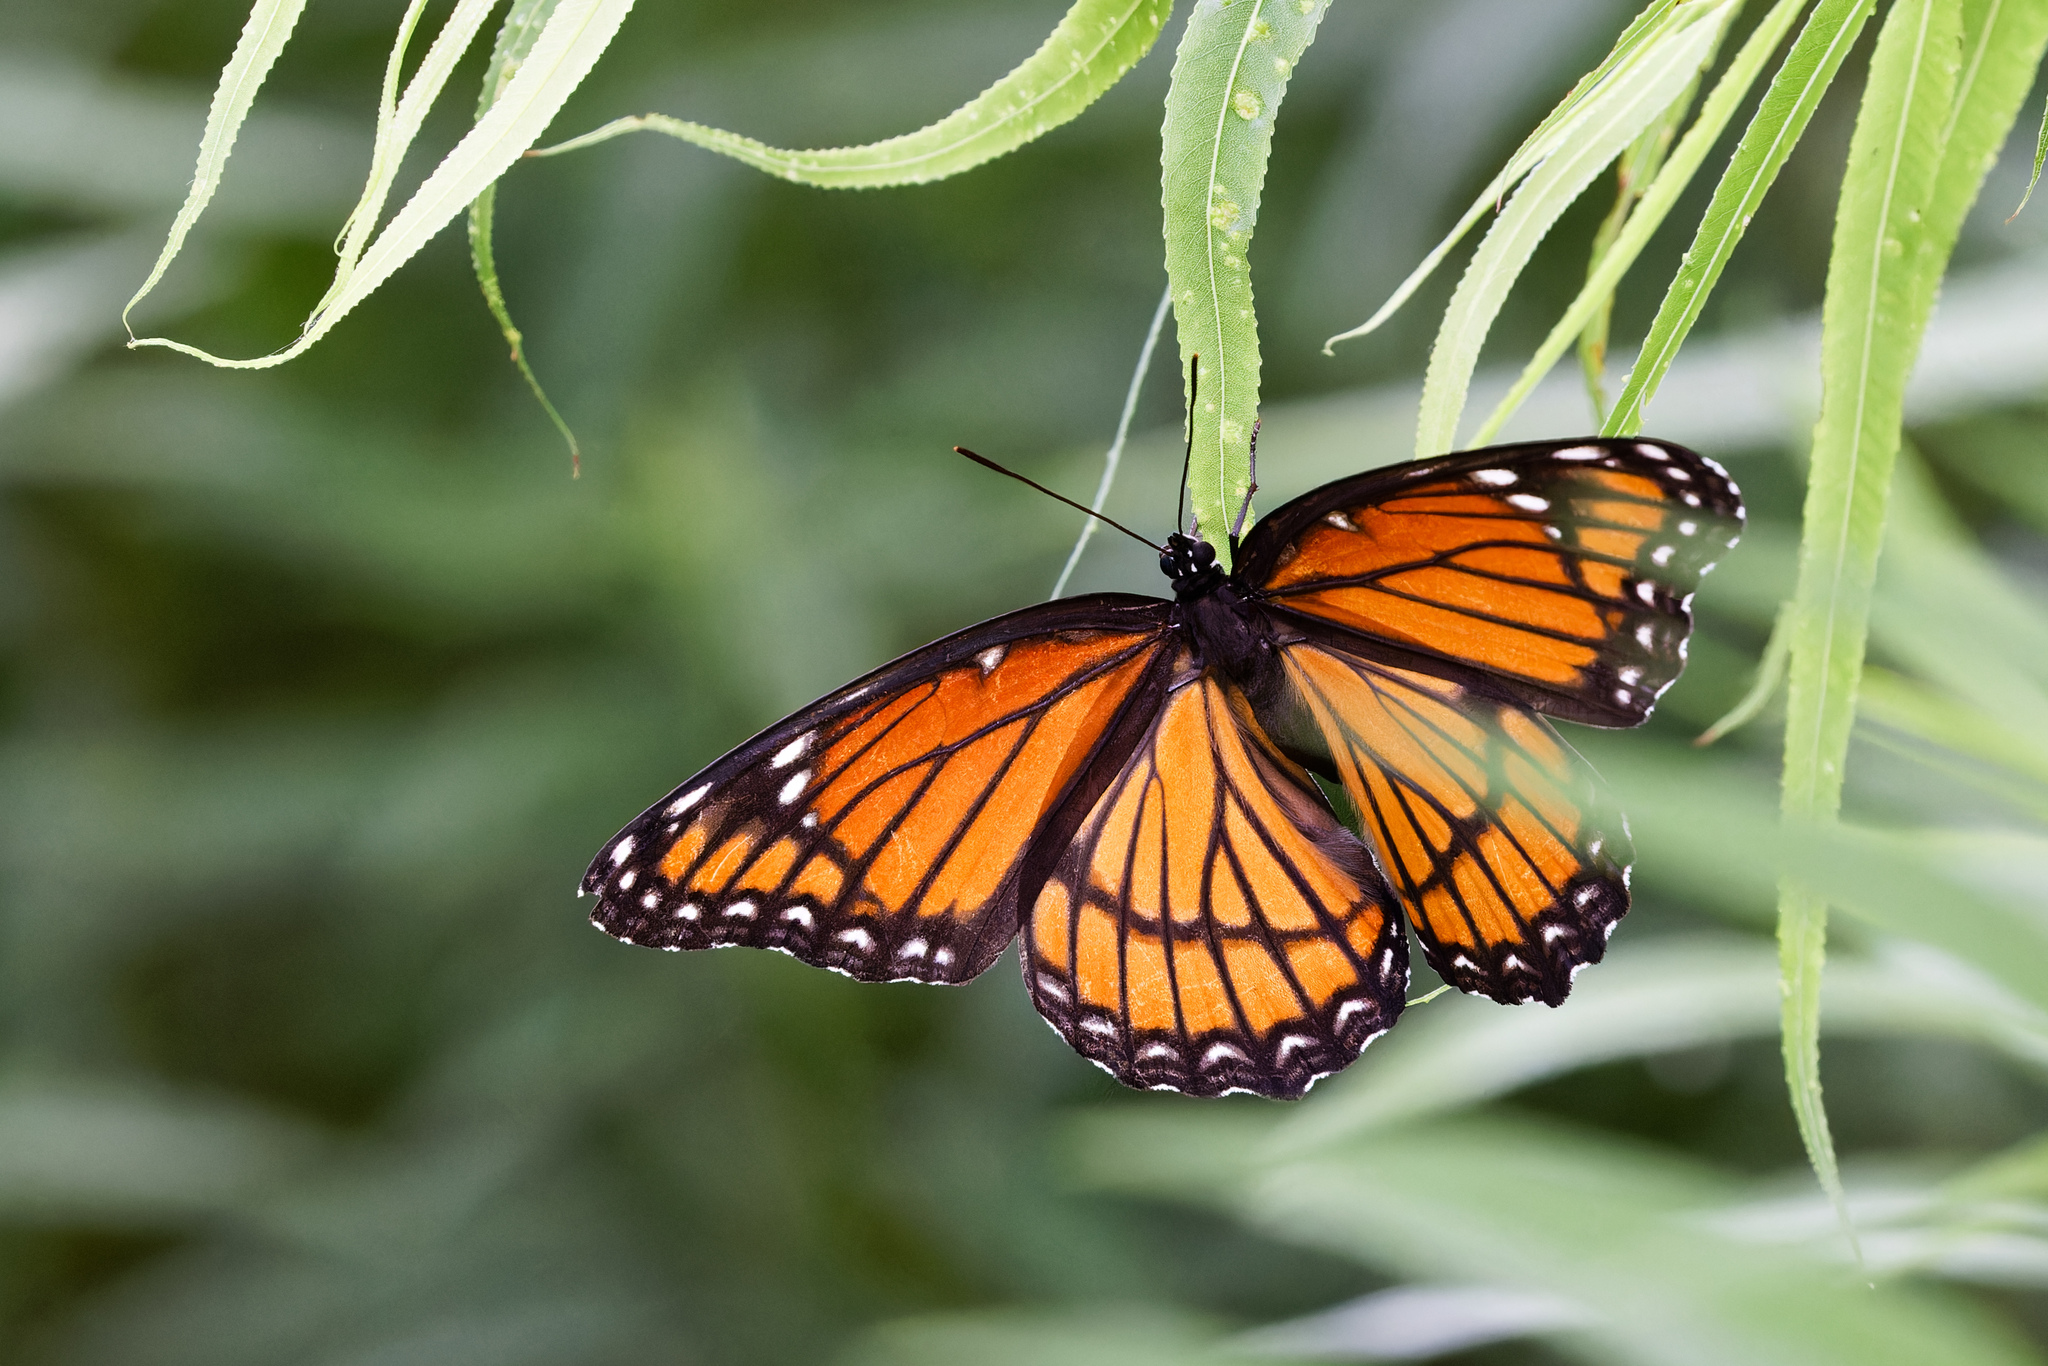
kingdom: Animalia
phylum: Arthropoda
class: Insecta
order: Lepidoptera
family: Nymphalidae
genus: Limenitis
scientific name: Limenitis archippus
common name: Viceroy
